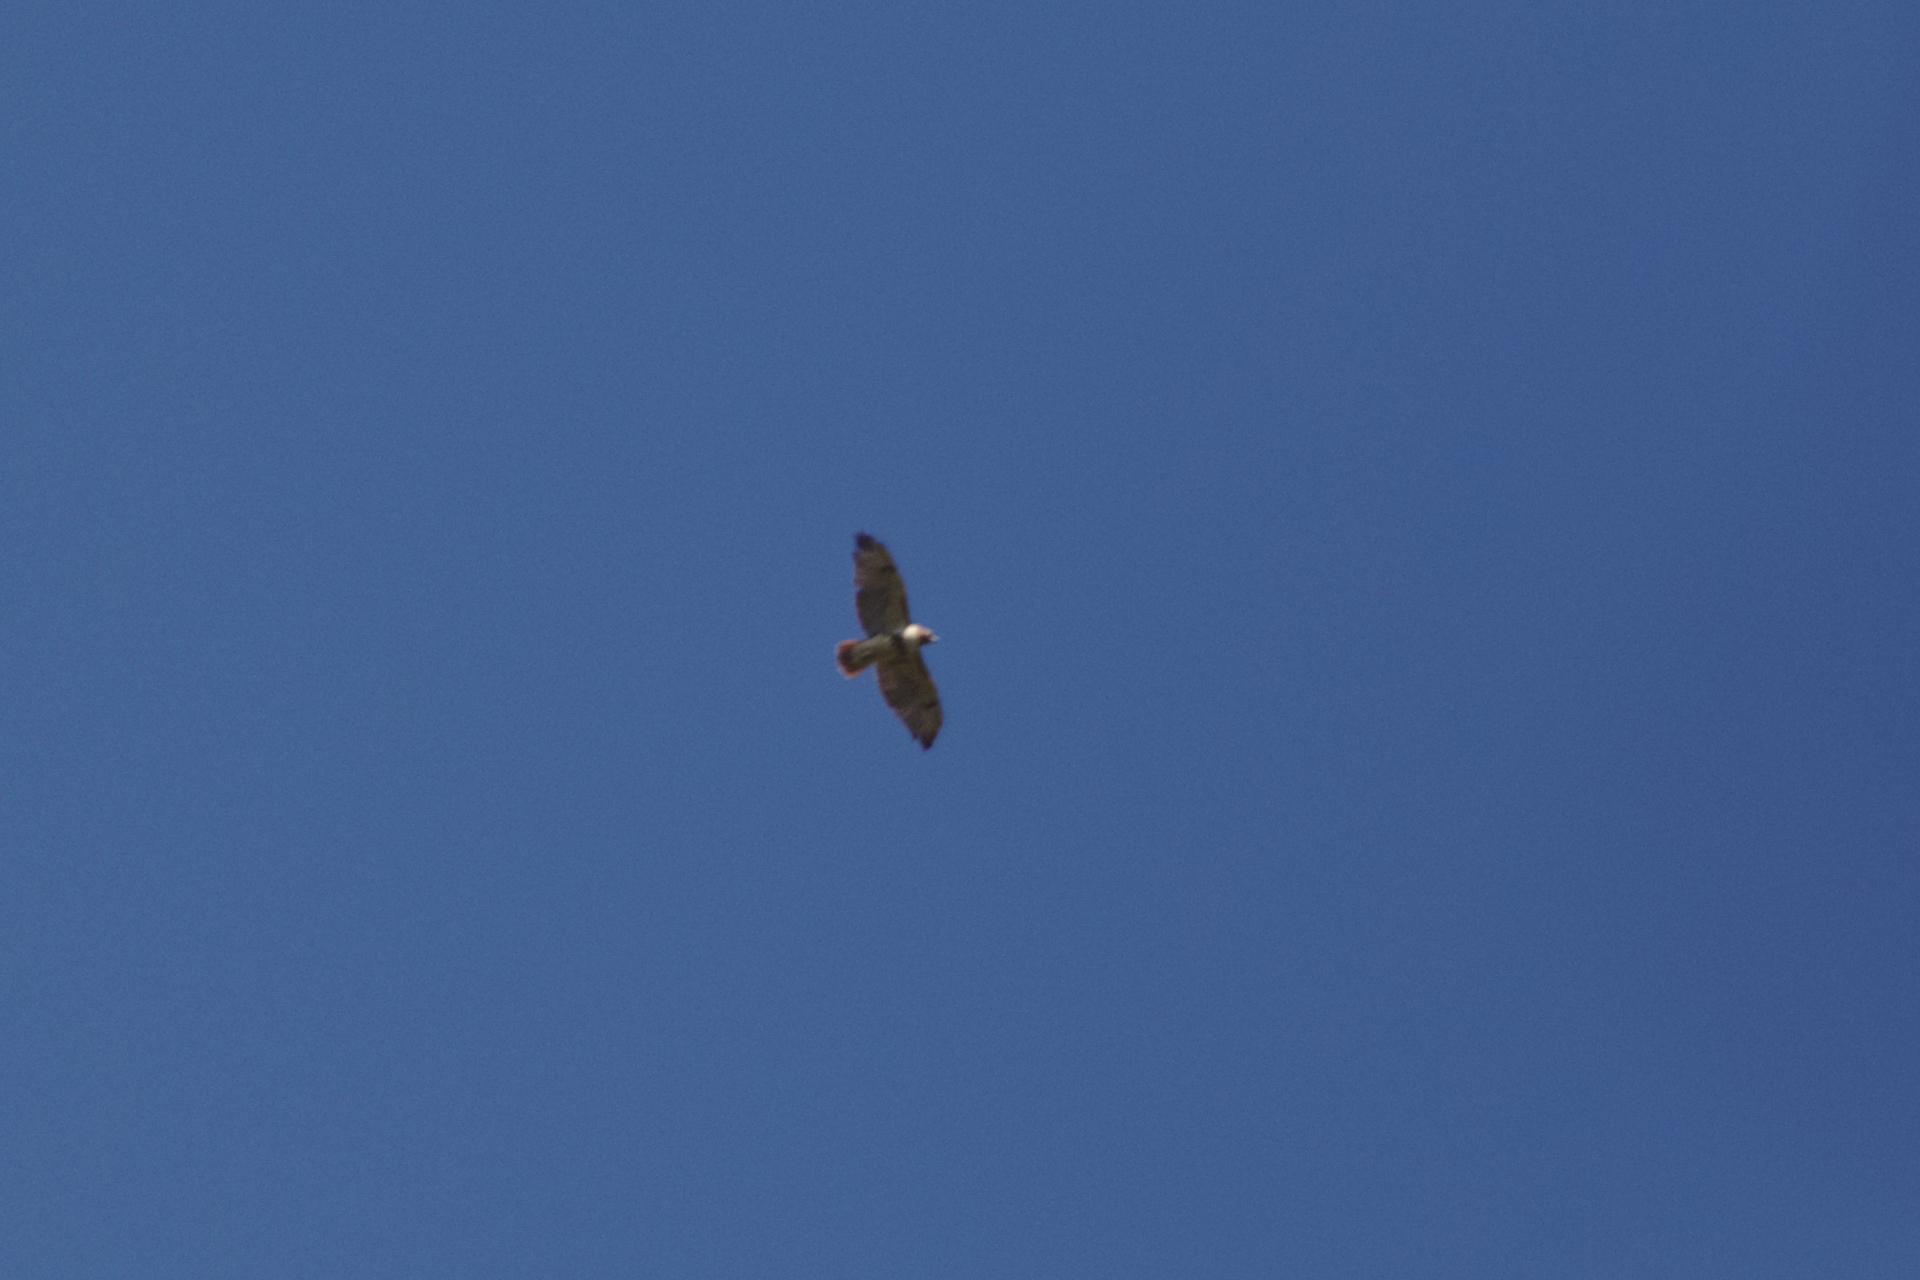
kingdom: Animalia
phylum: Chordata
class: Aves
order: Accipitriformes
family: Accipitridae
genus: Buteo
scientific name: Buteo jamaicensis
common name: Red-tailed hawk
